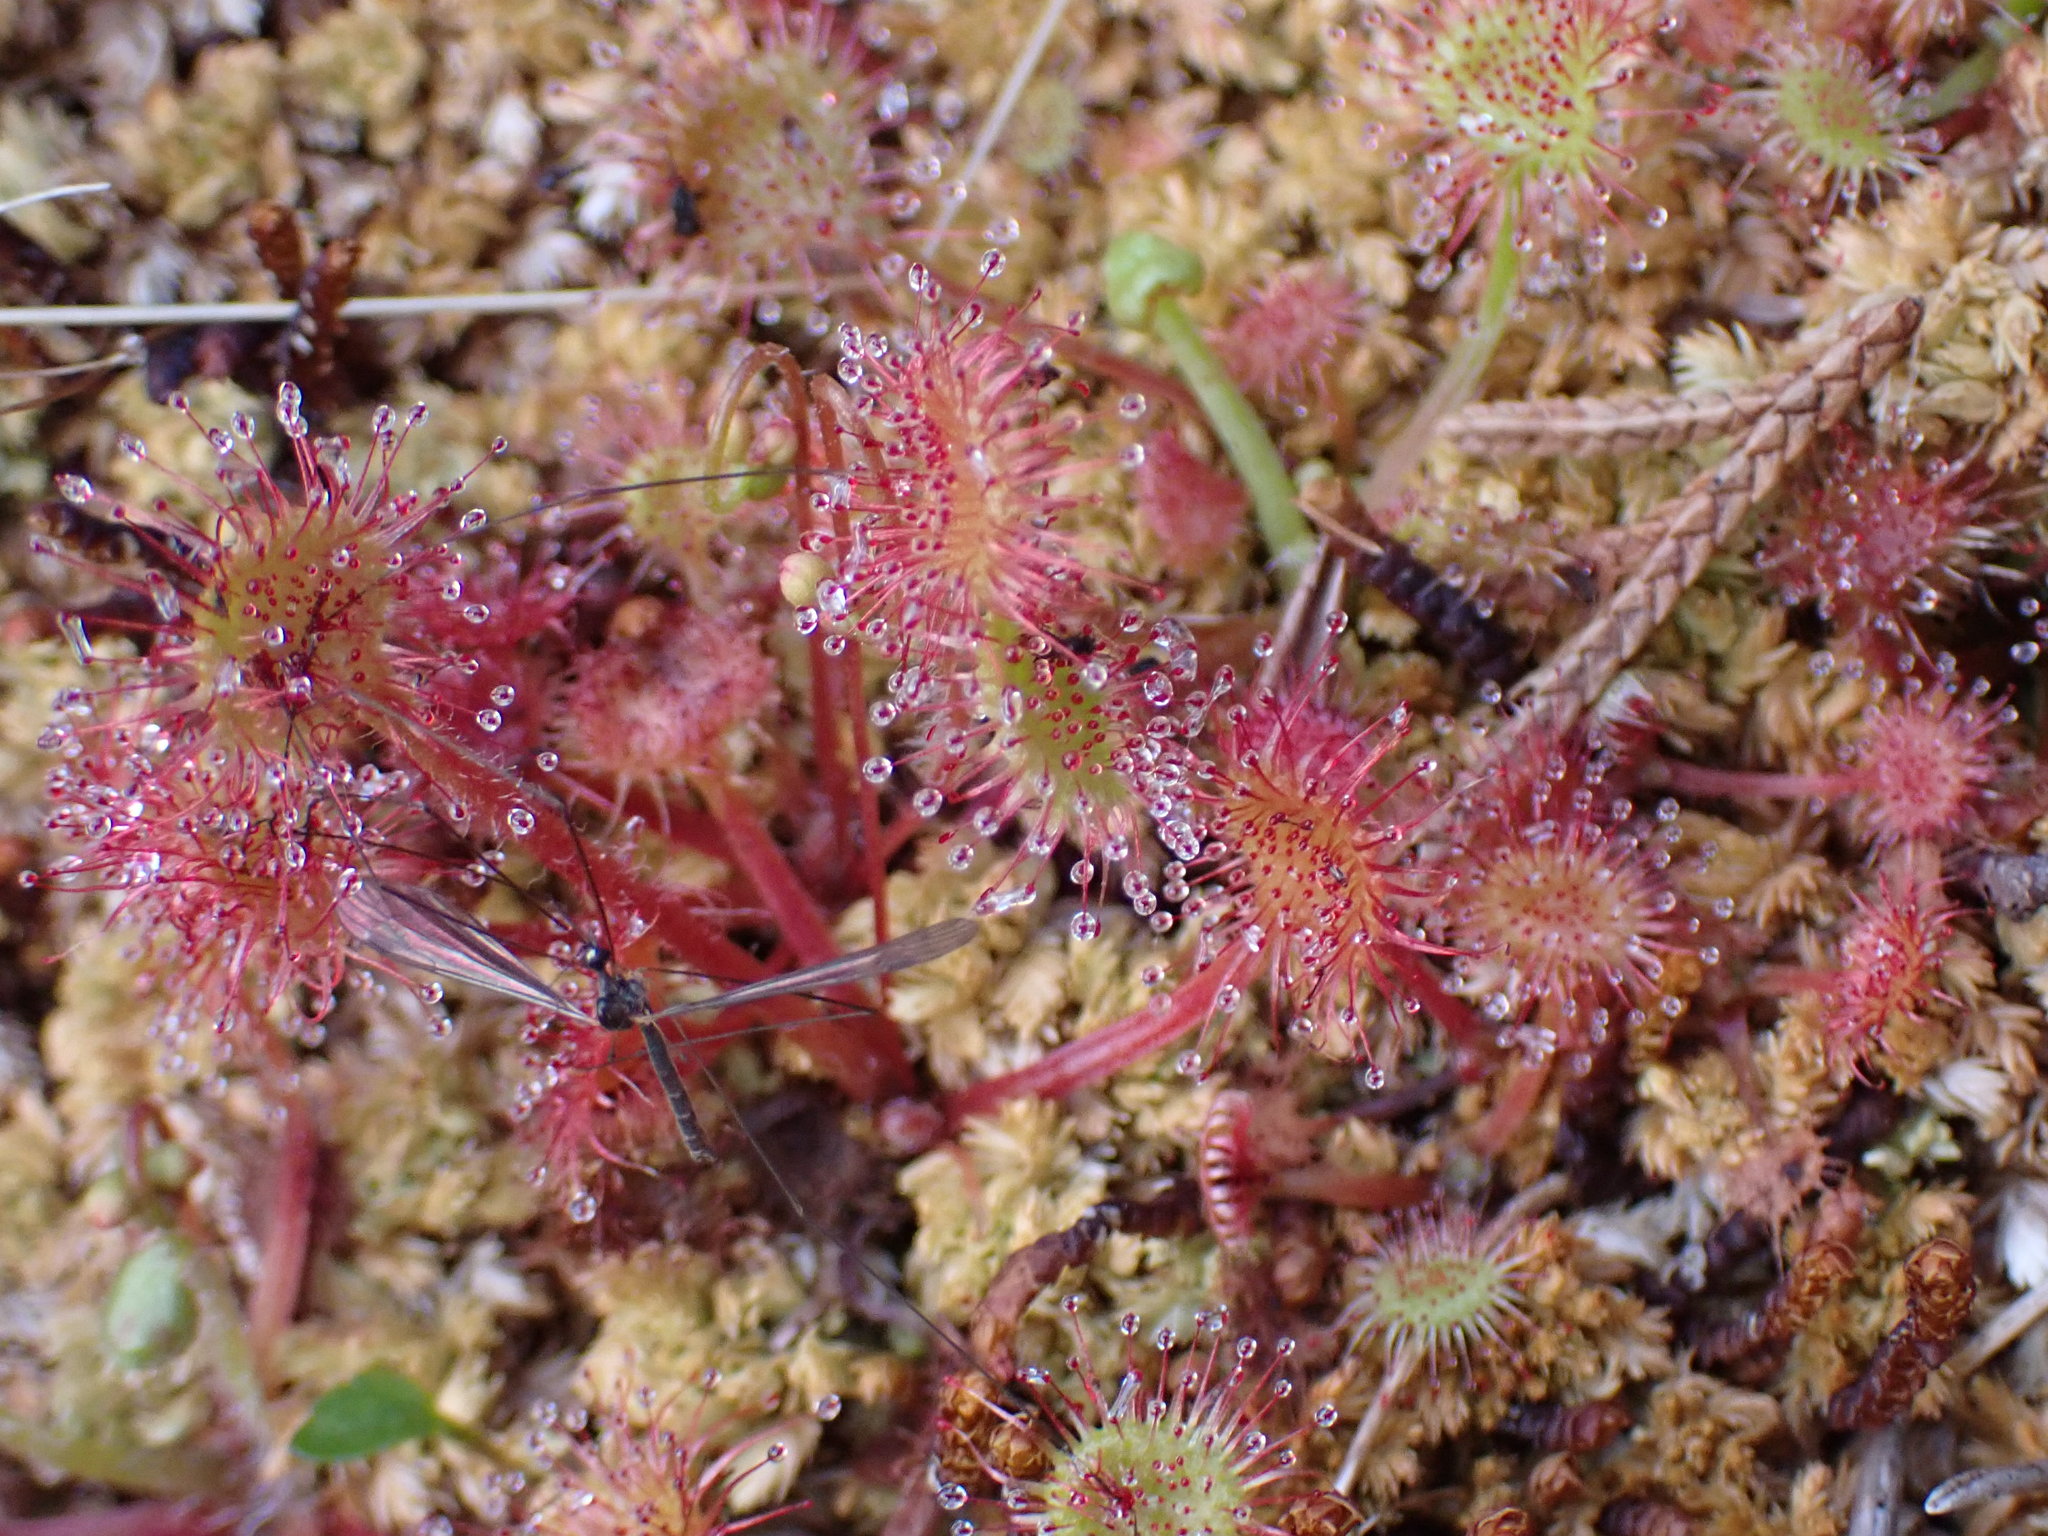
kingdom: Plantae
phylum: Tracheophyta
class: Magnoliopsida
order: Caryophyllales
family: Droseraceae
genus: Drosera
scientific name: Drosera rotundifolia
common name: Round-leaved sundew
